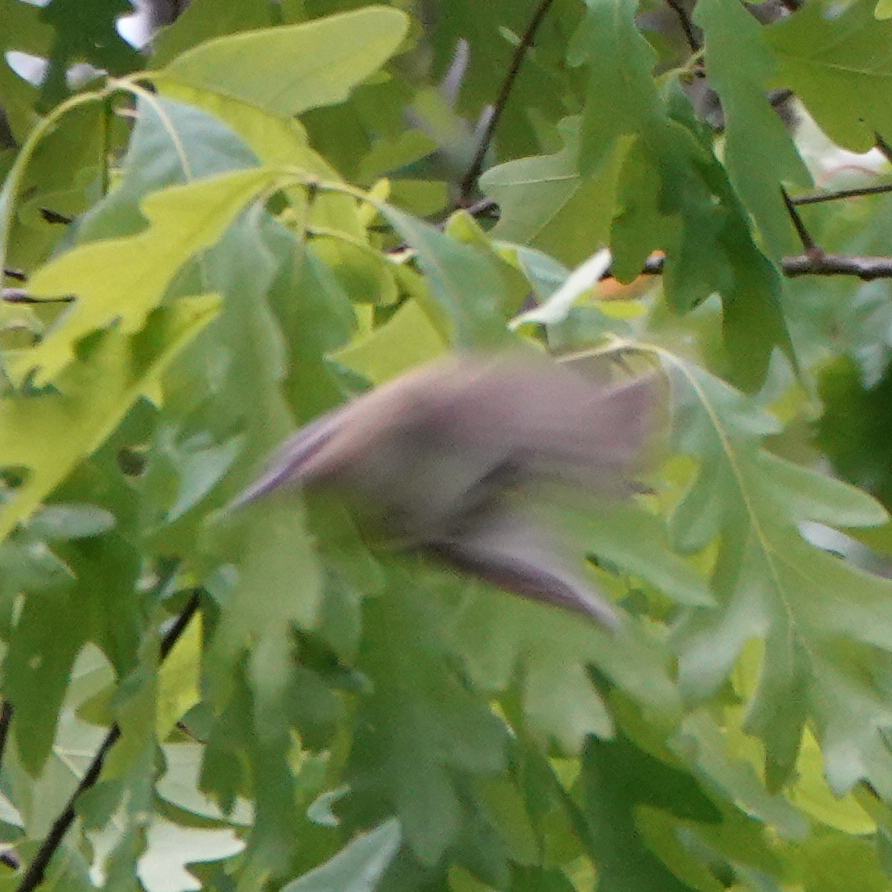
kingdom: Animalia
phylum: Chordata
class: Aves
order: Passeriformes
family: Vireonidae
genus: Vireo
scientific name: Vireo olivaceus
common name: Red-eyed vireo
